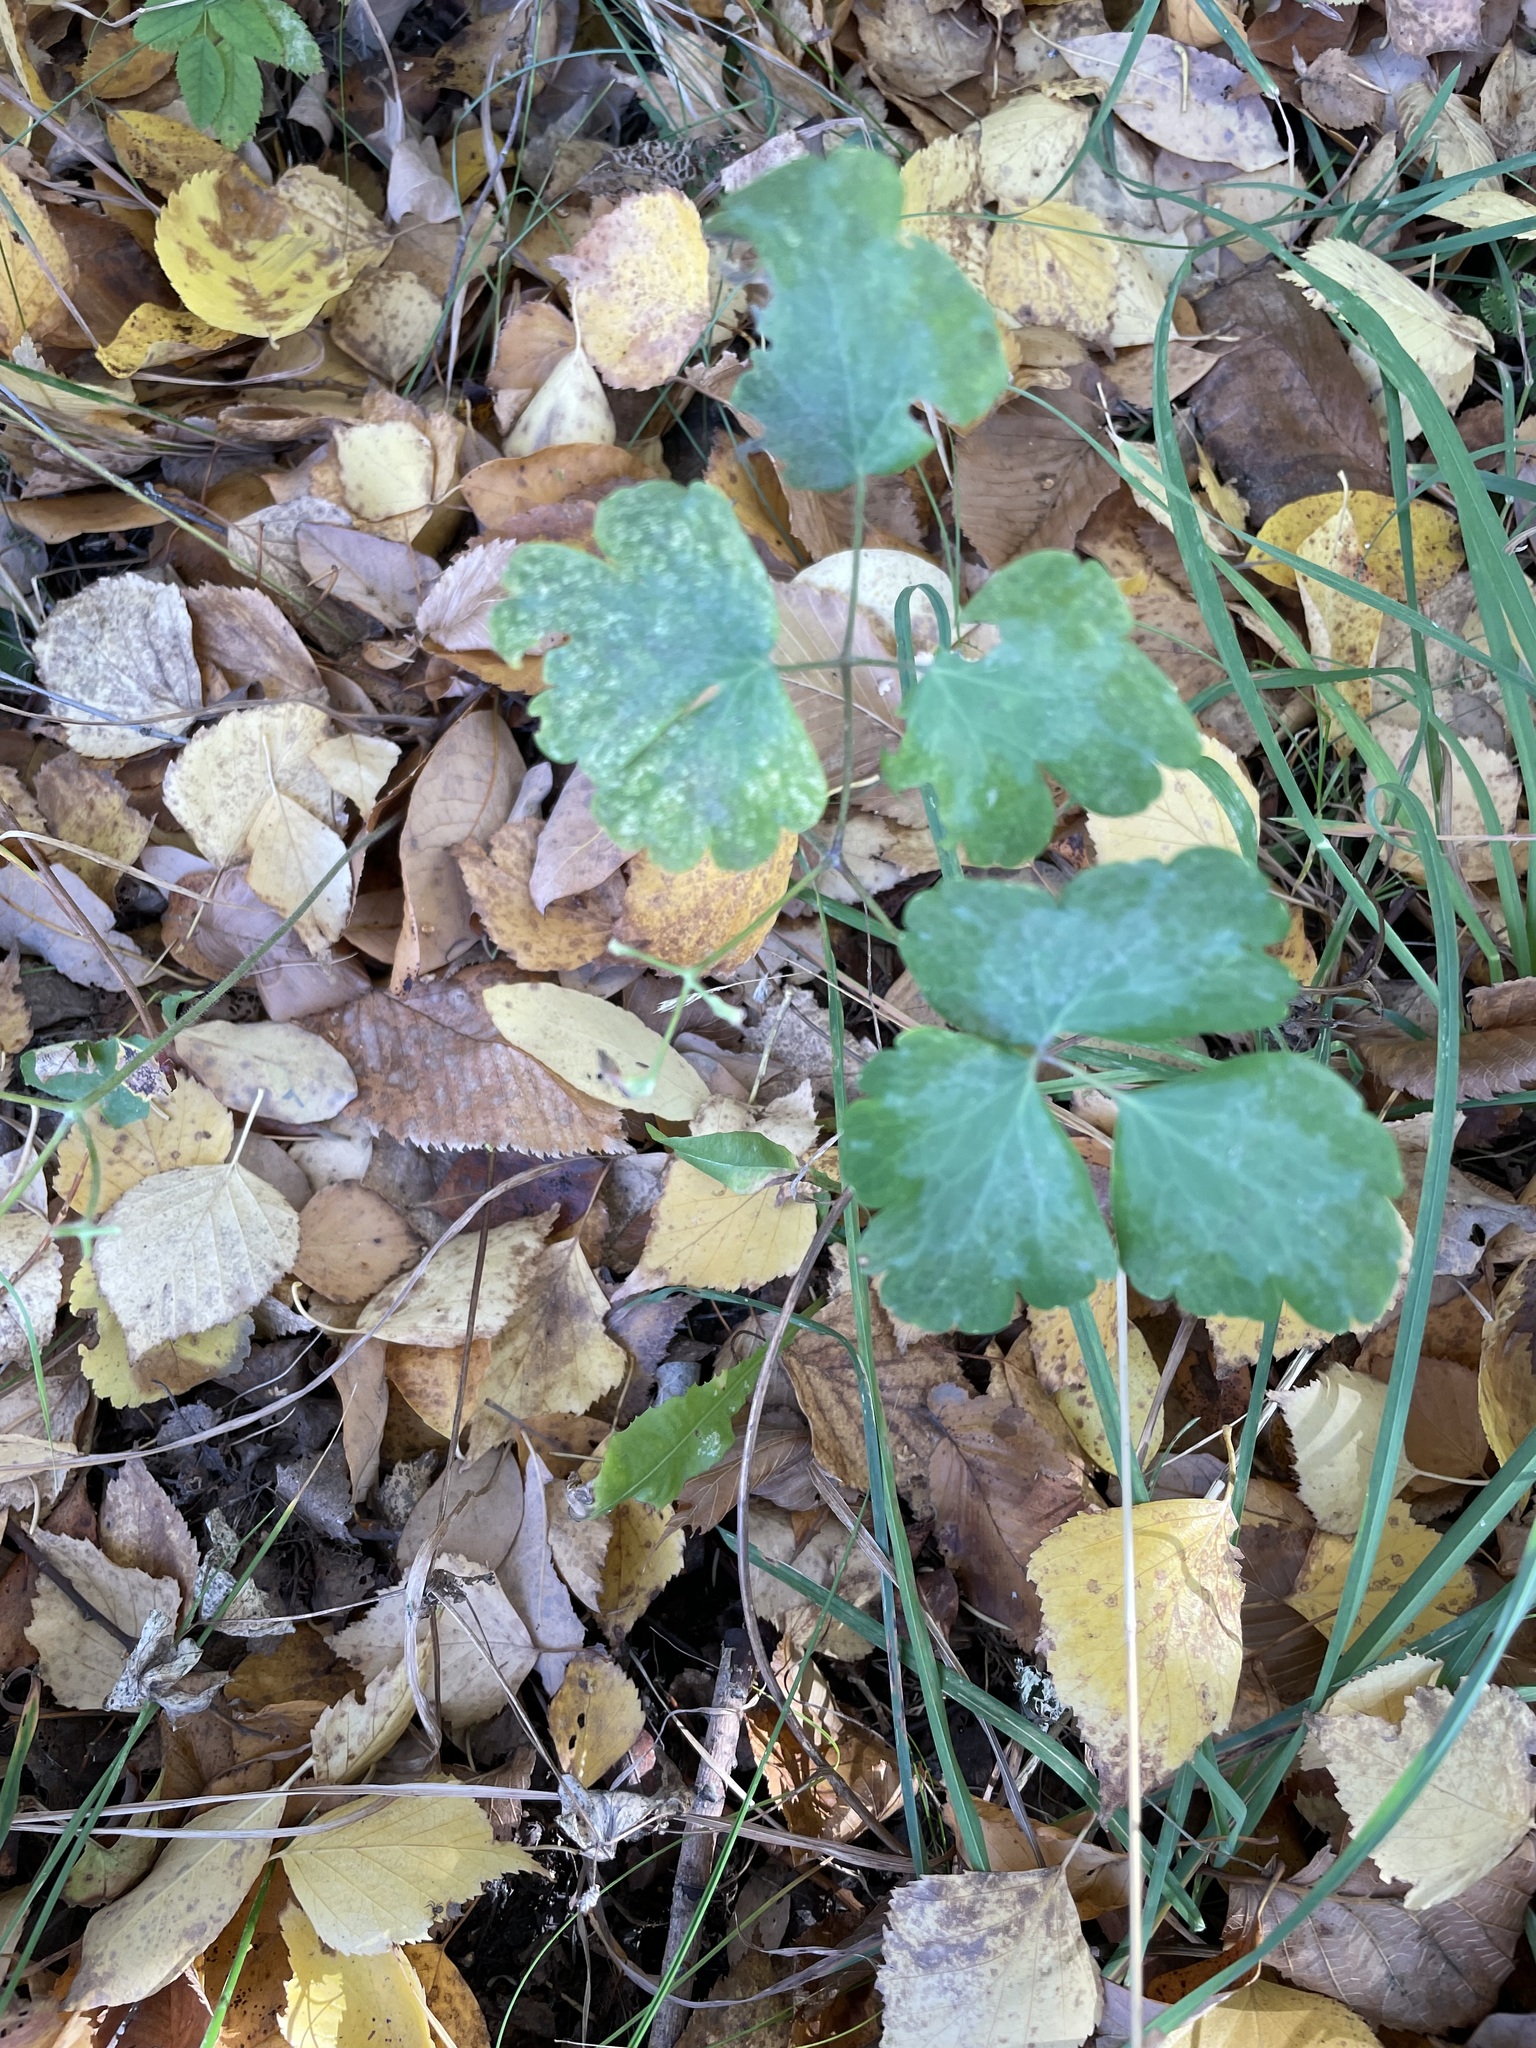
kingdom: Plantae
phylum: Tracheophyta
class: Magnoliopsida
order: Ranunculales
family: Ranunculaceae
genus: Aquilegia
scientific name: Aquilegia vulgaris
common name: Columbine
